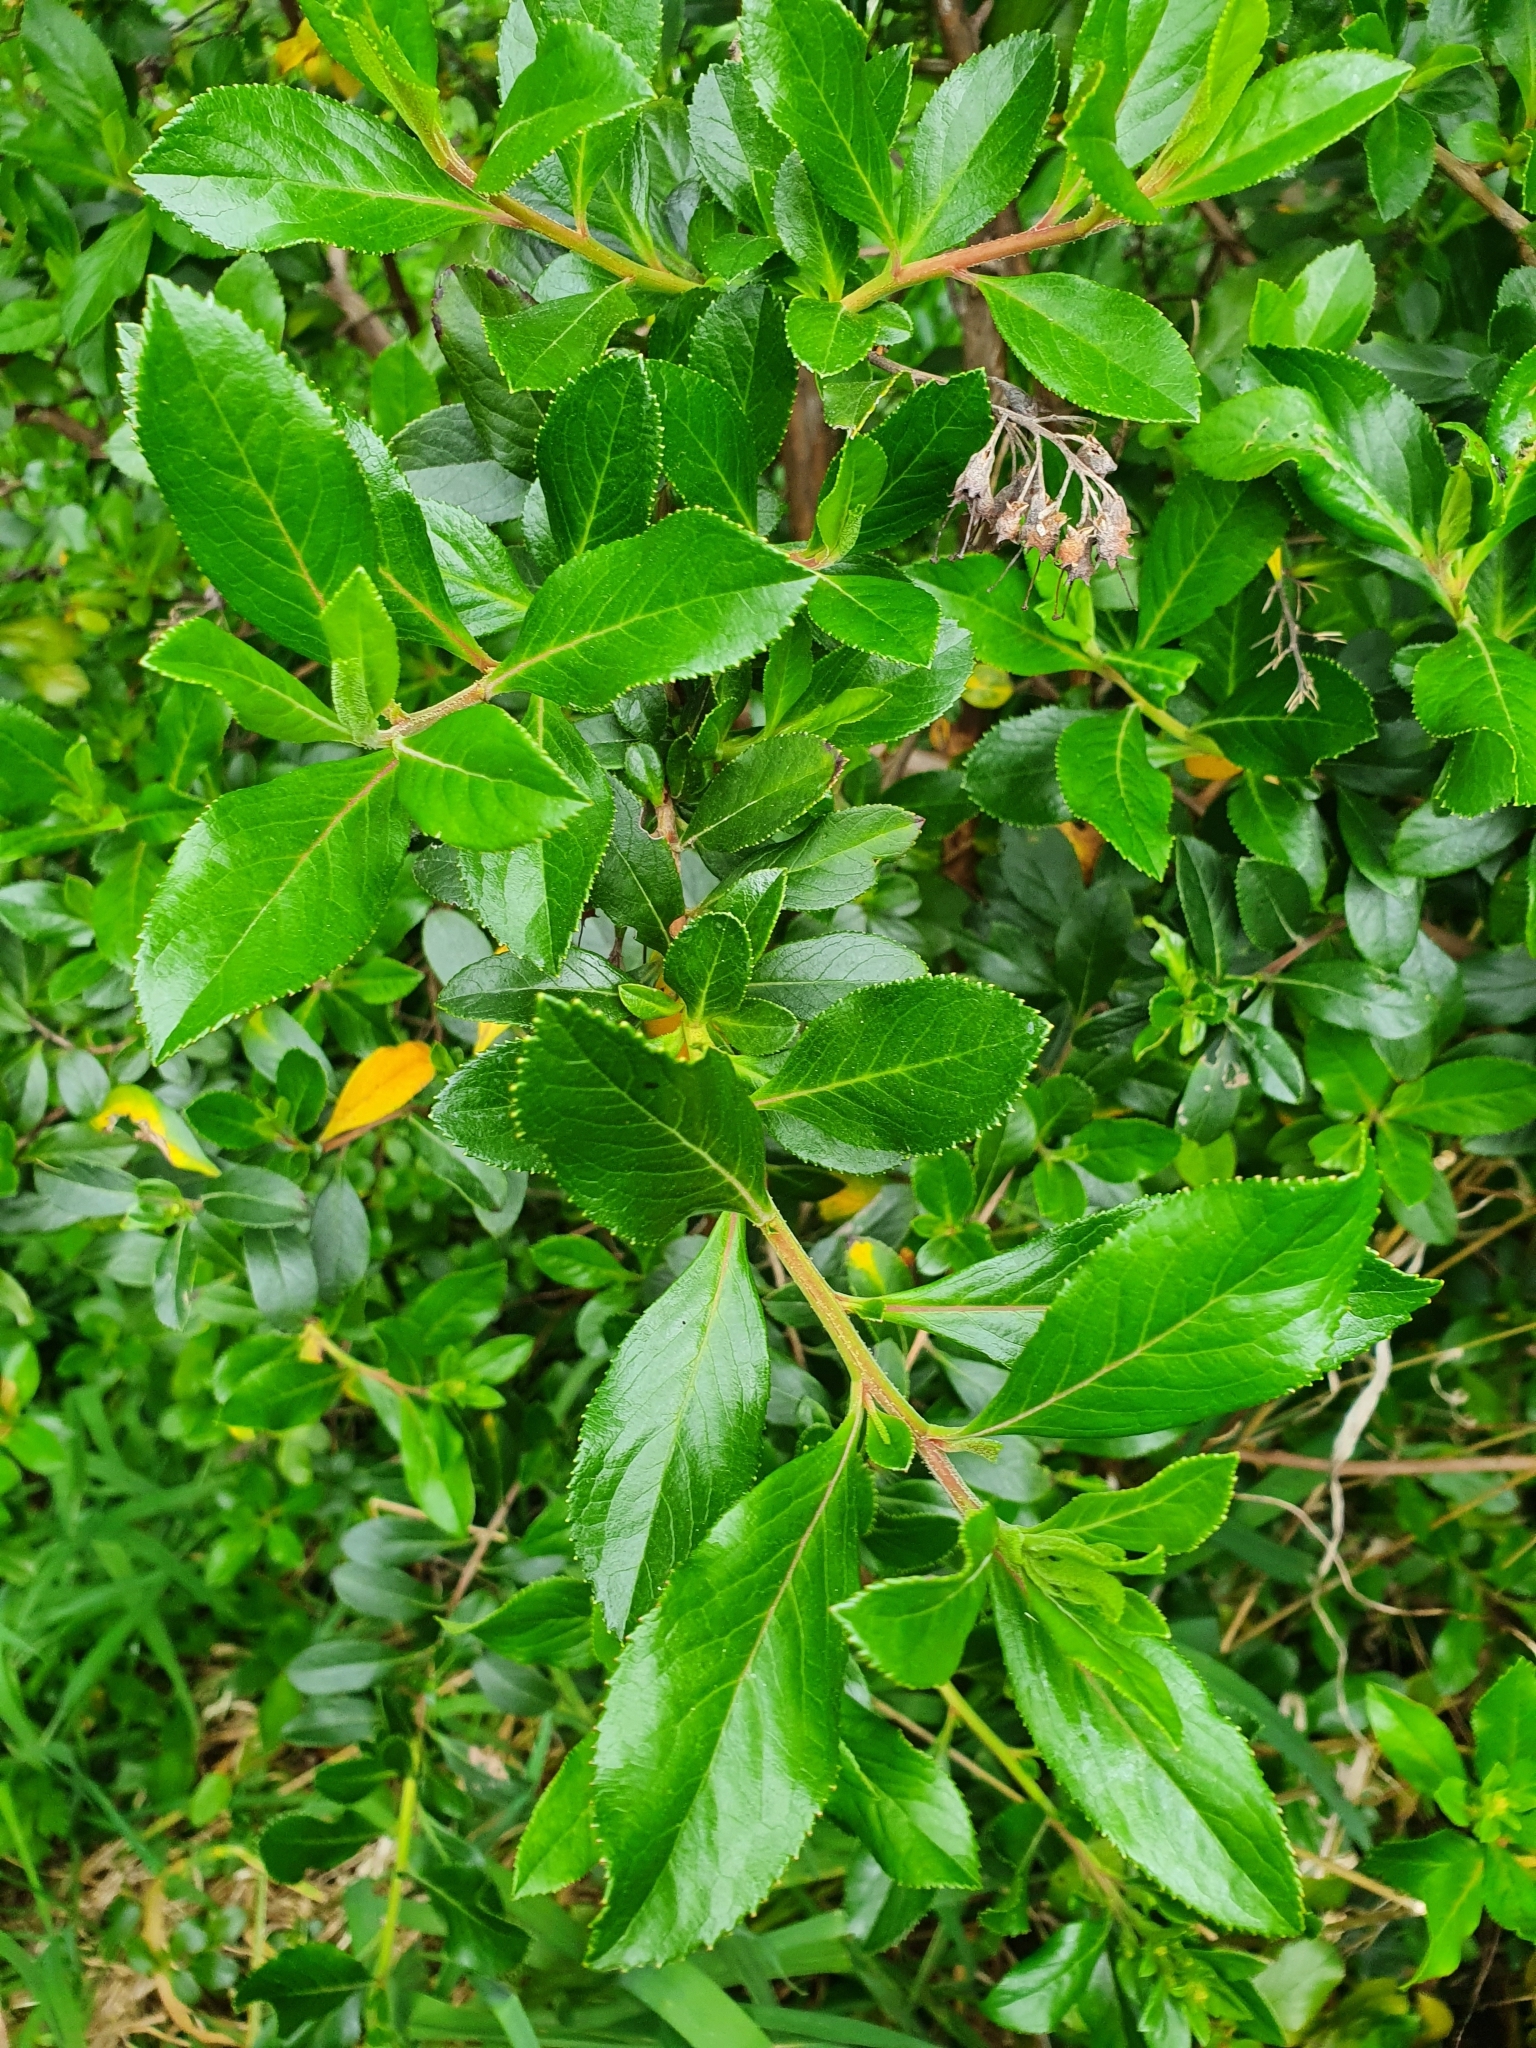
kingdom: Plantae
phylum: Tracheophyta
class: Magnoliopsida
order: Escalloniales
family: Escalloniaceae
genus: Escallonia
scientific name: Escallonia rubra
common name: Redclaws
